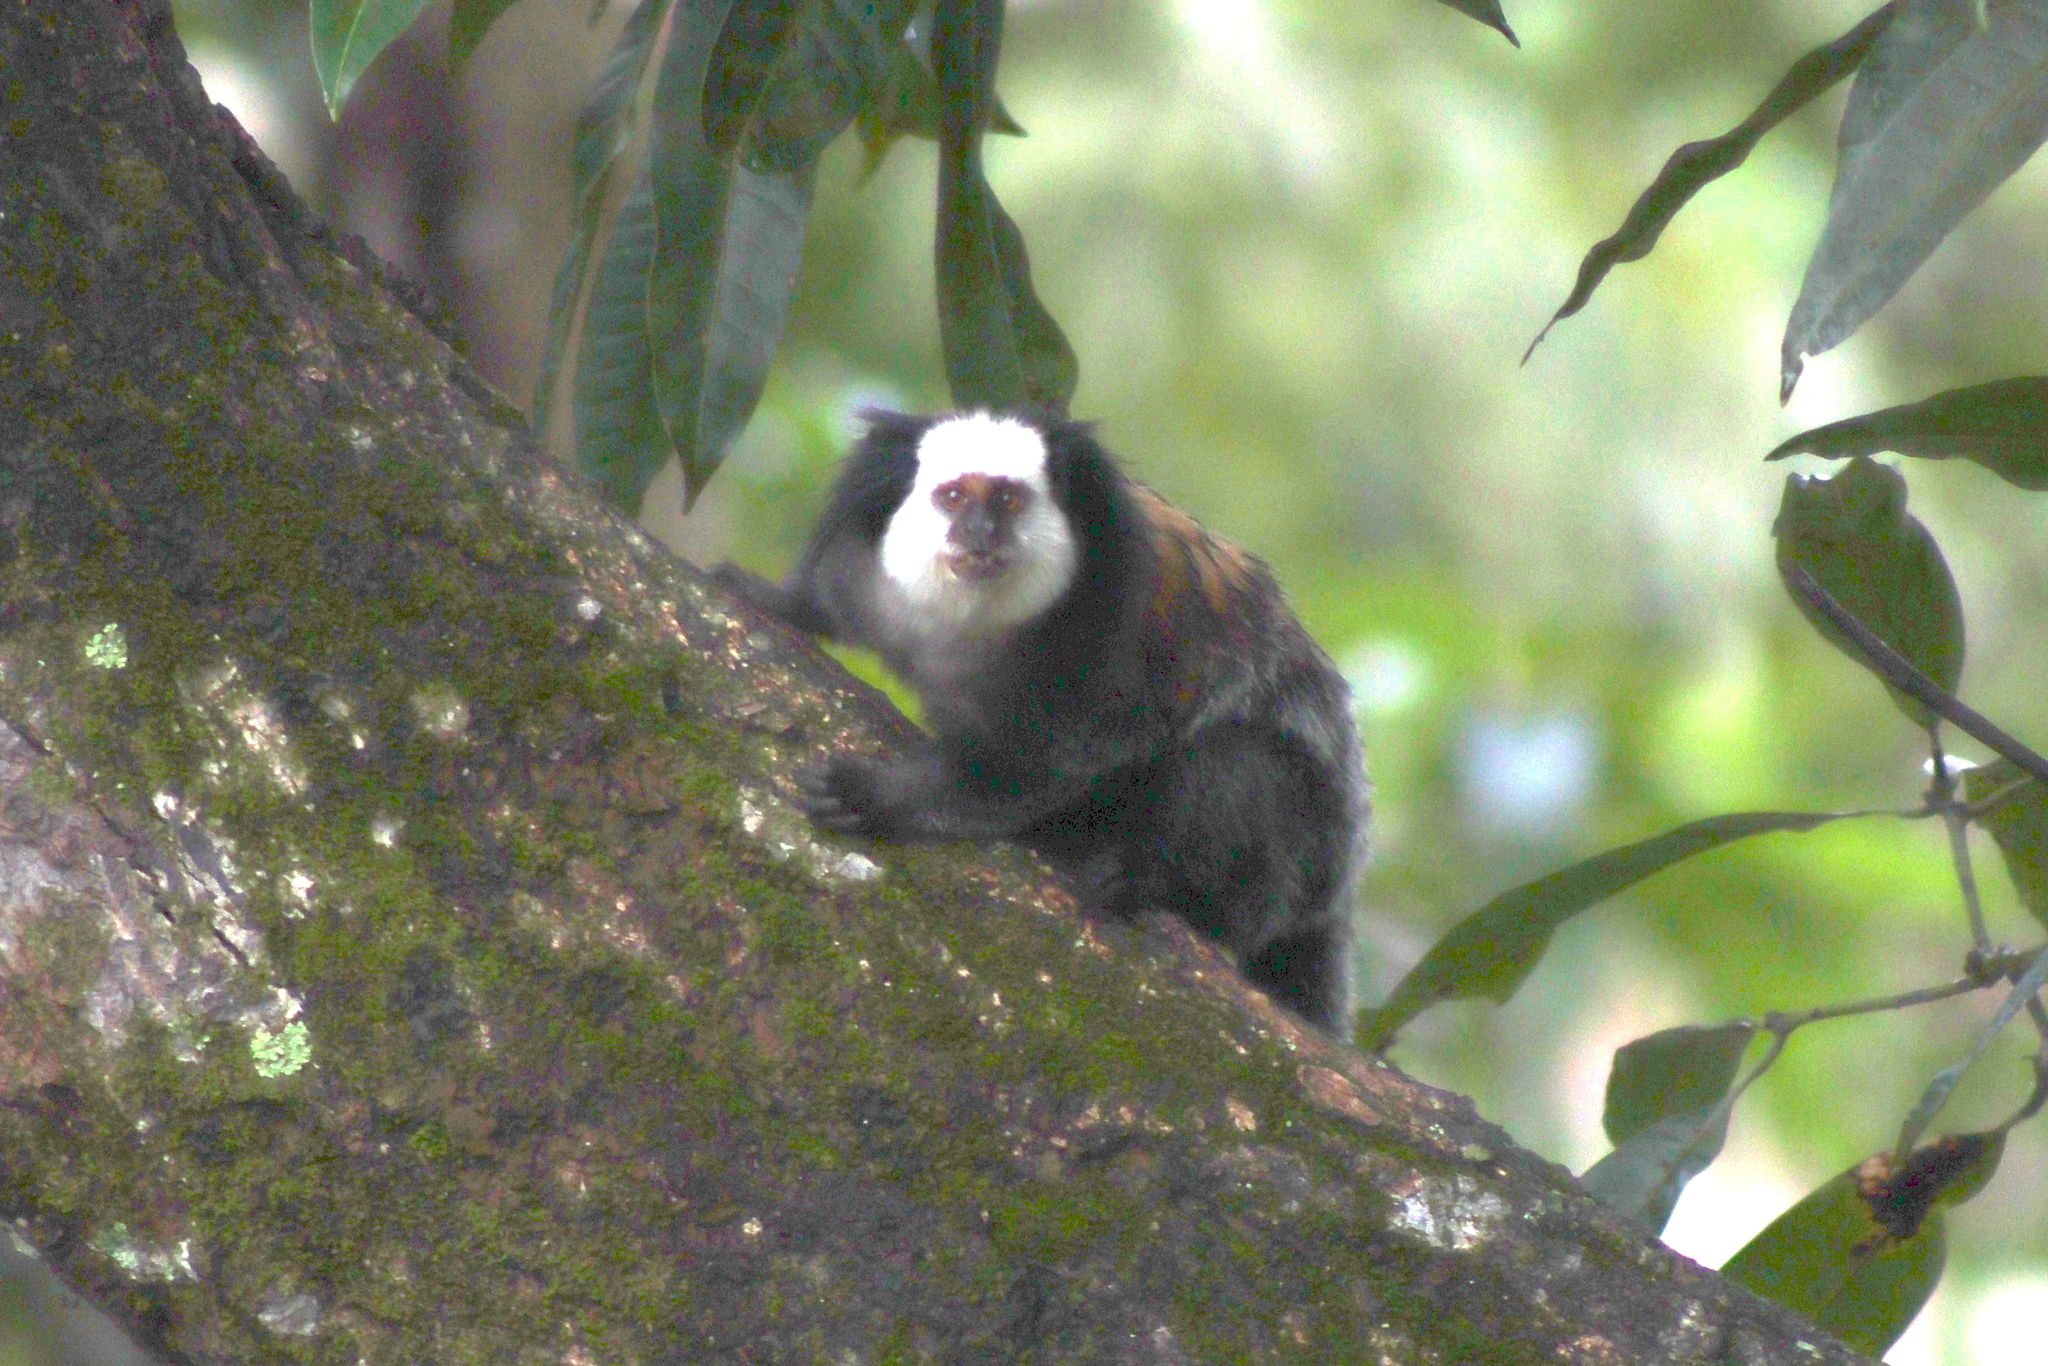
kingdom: Animalia
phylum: Chordata
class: Mammalia
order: Primates
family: Callitrichidae
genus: Callithrix
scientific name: Callithrix geoffroyi
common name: White-headed marmoset
